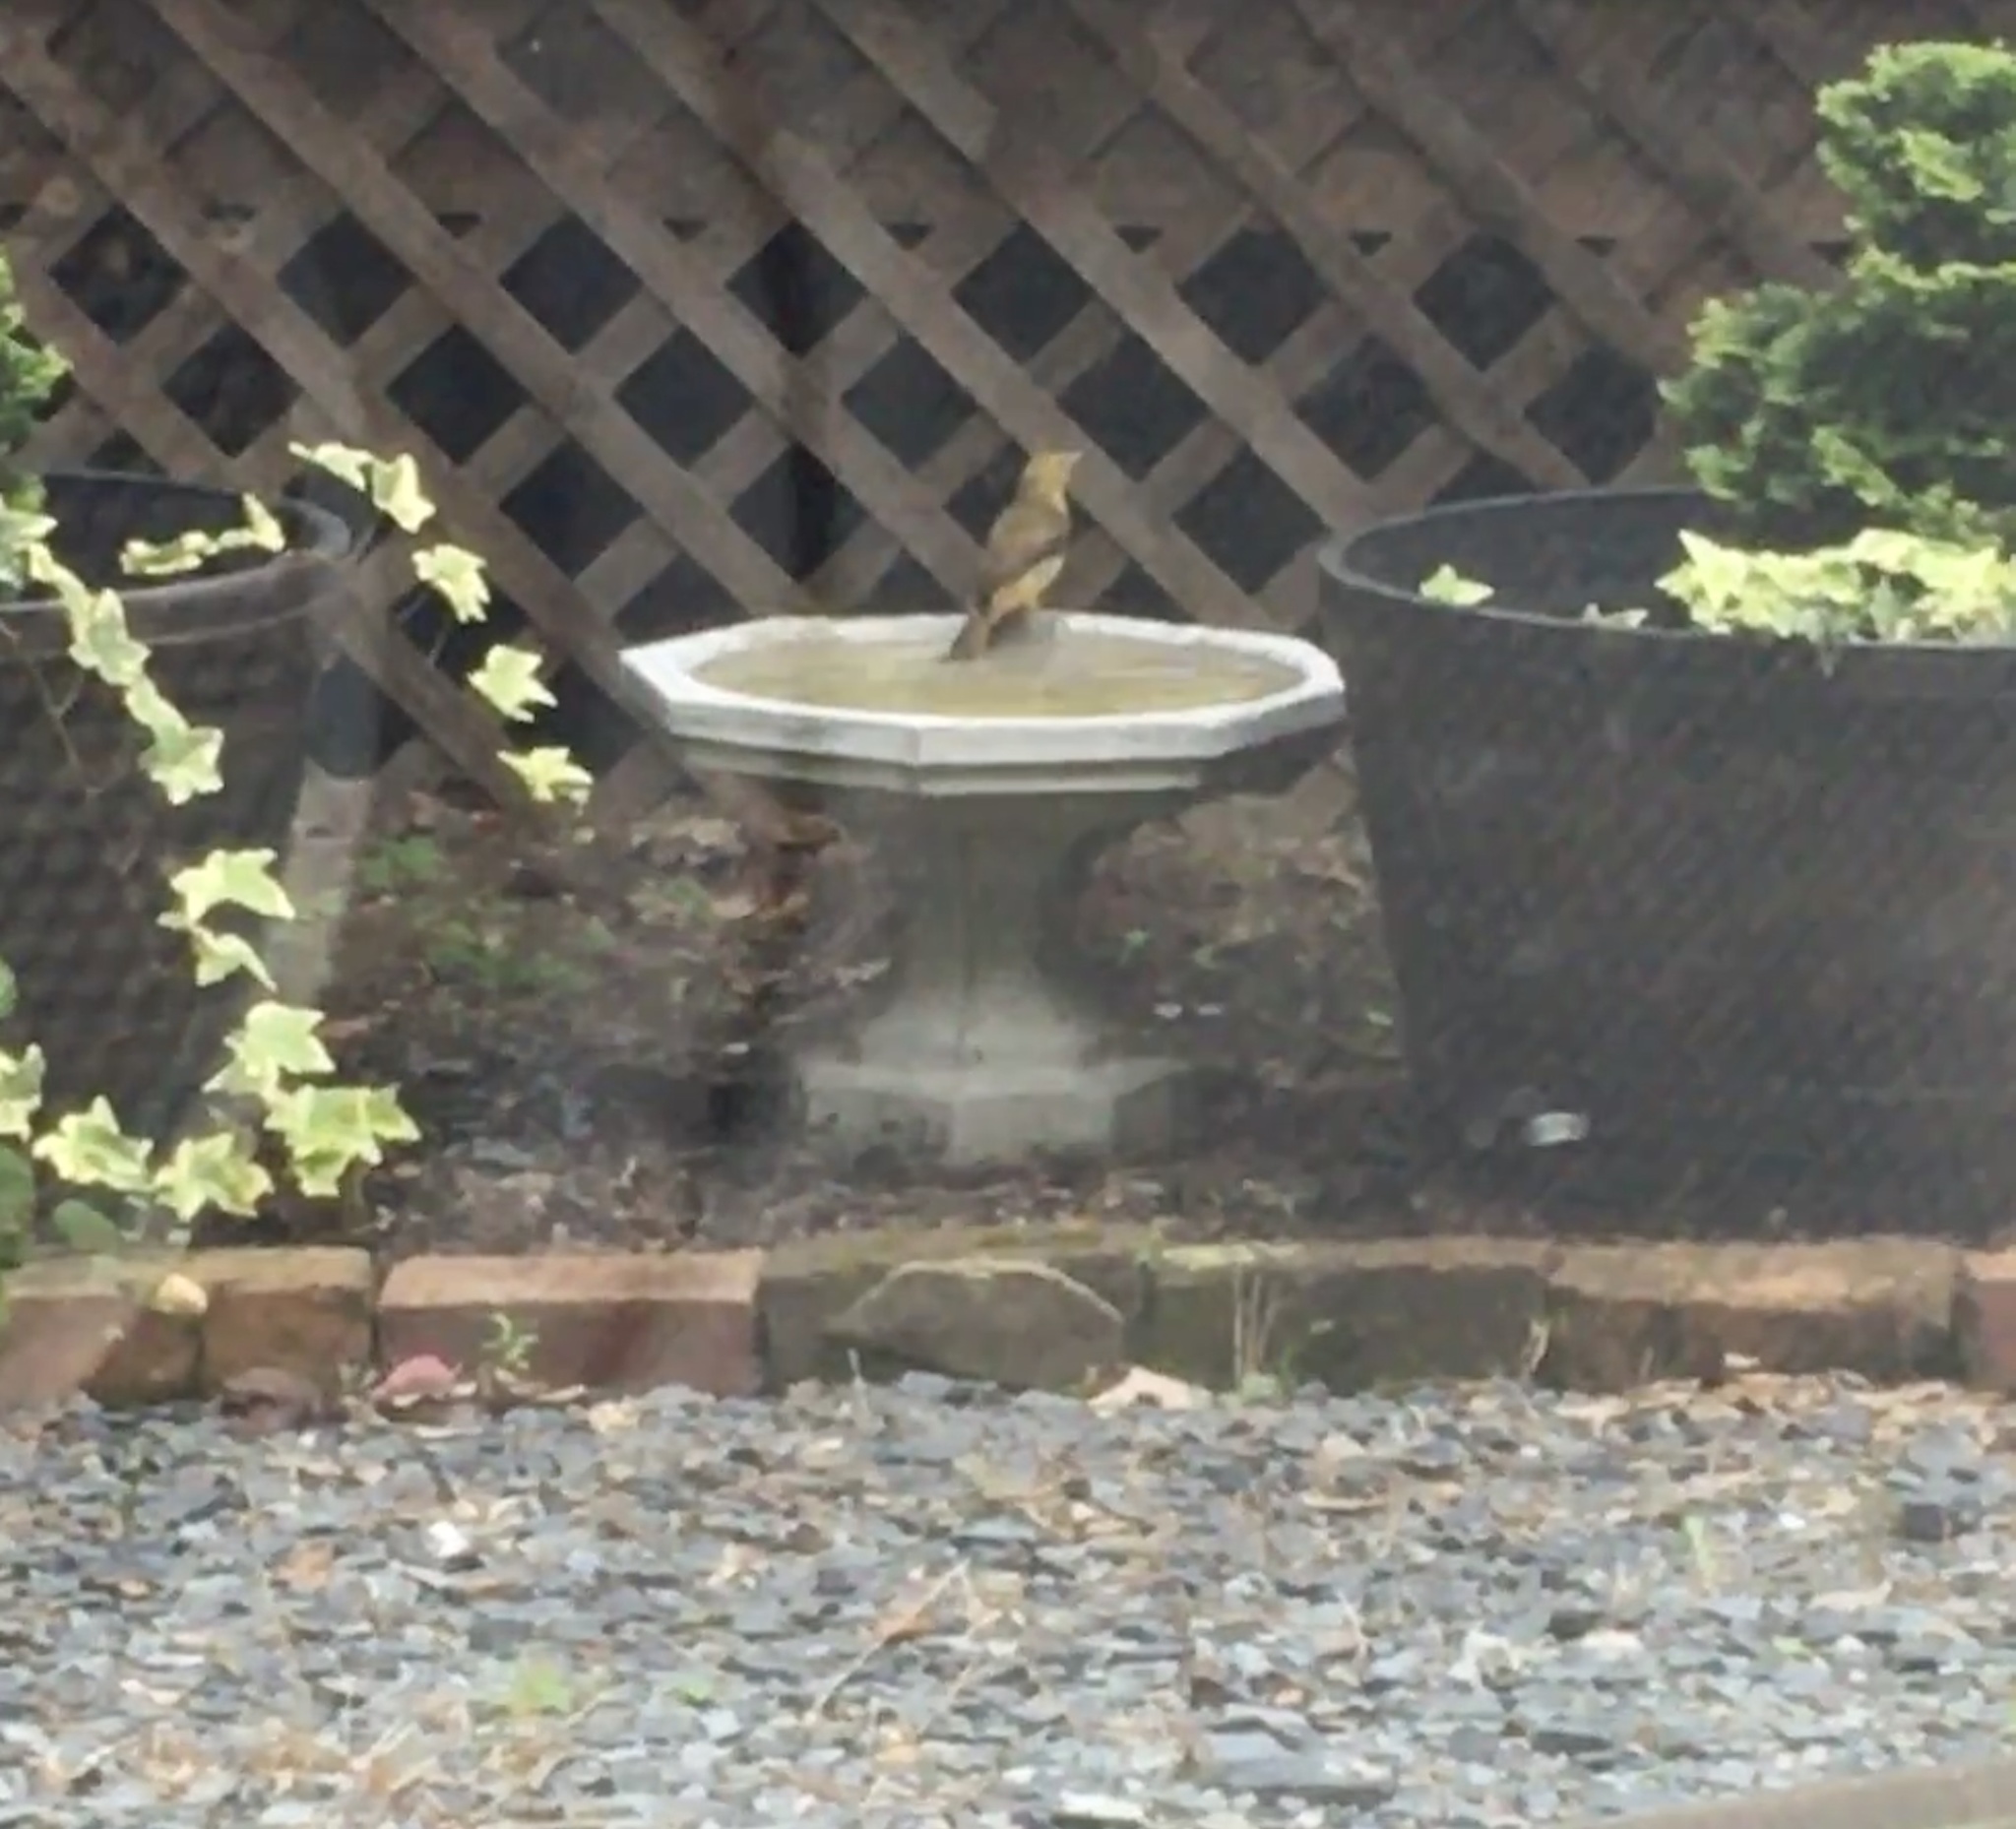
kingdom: Animalia
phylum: Chordata
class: Aves
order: Passeriformes
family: Cardinalidae
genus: Piranga
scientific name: Piranga olivacea
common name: Scarlet tanager
